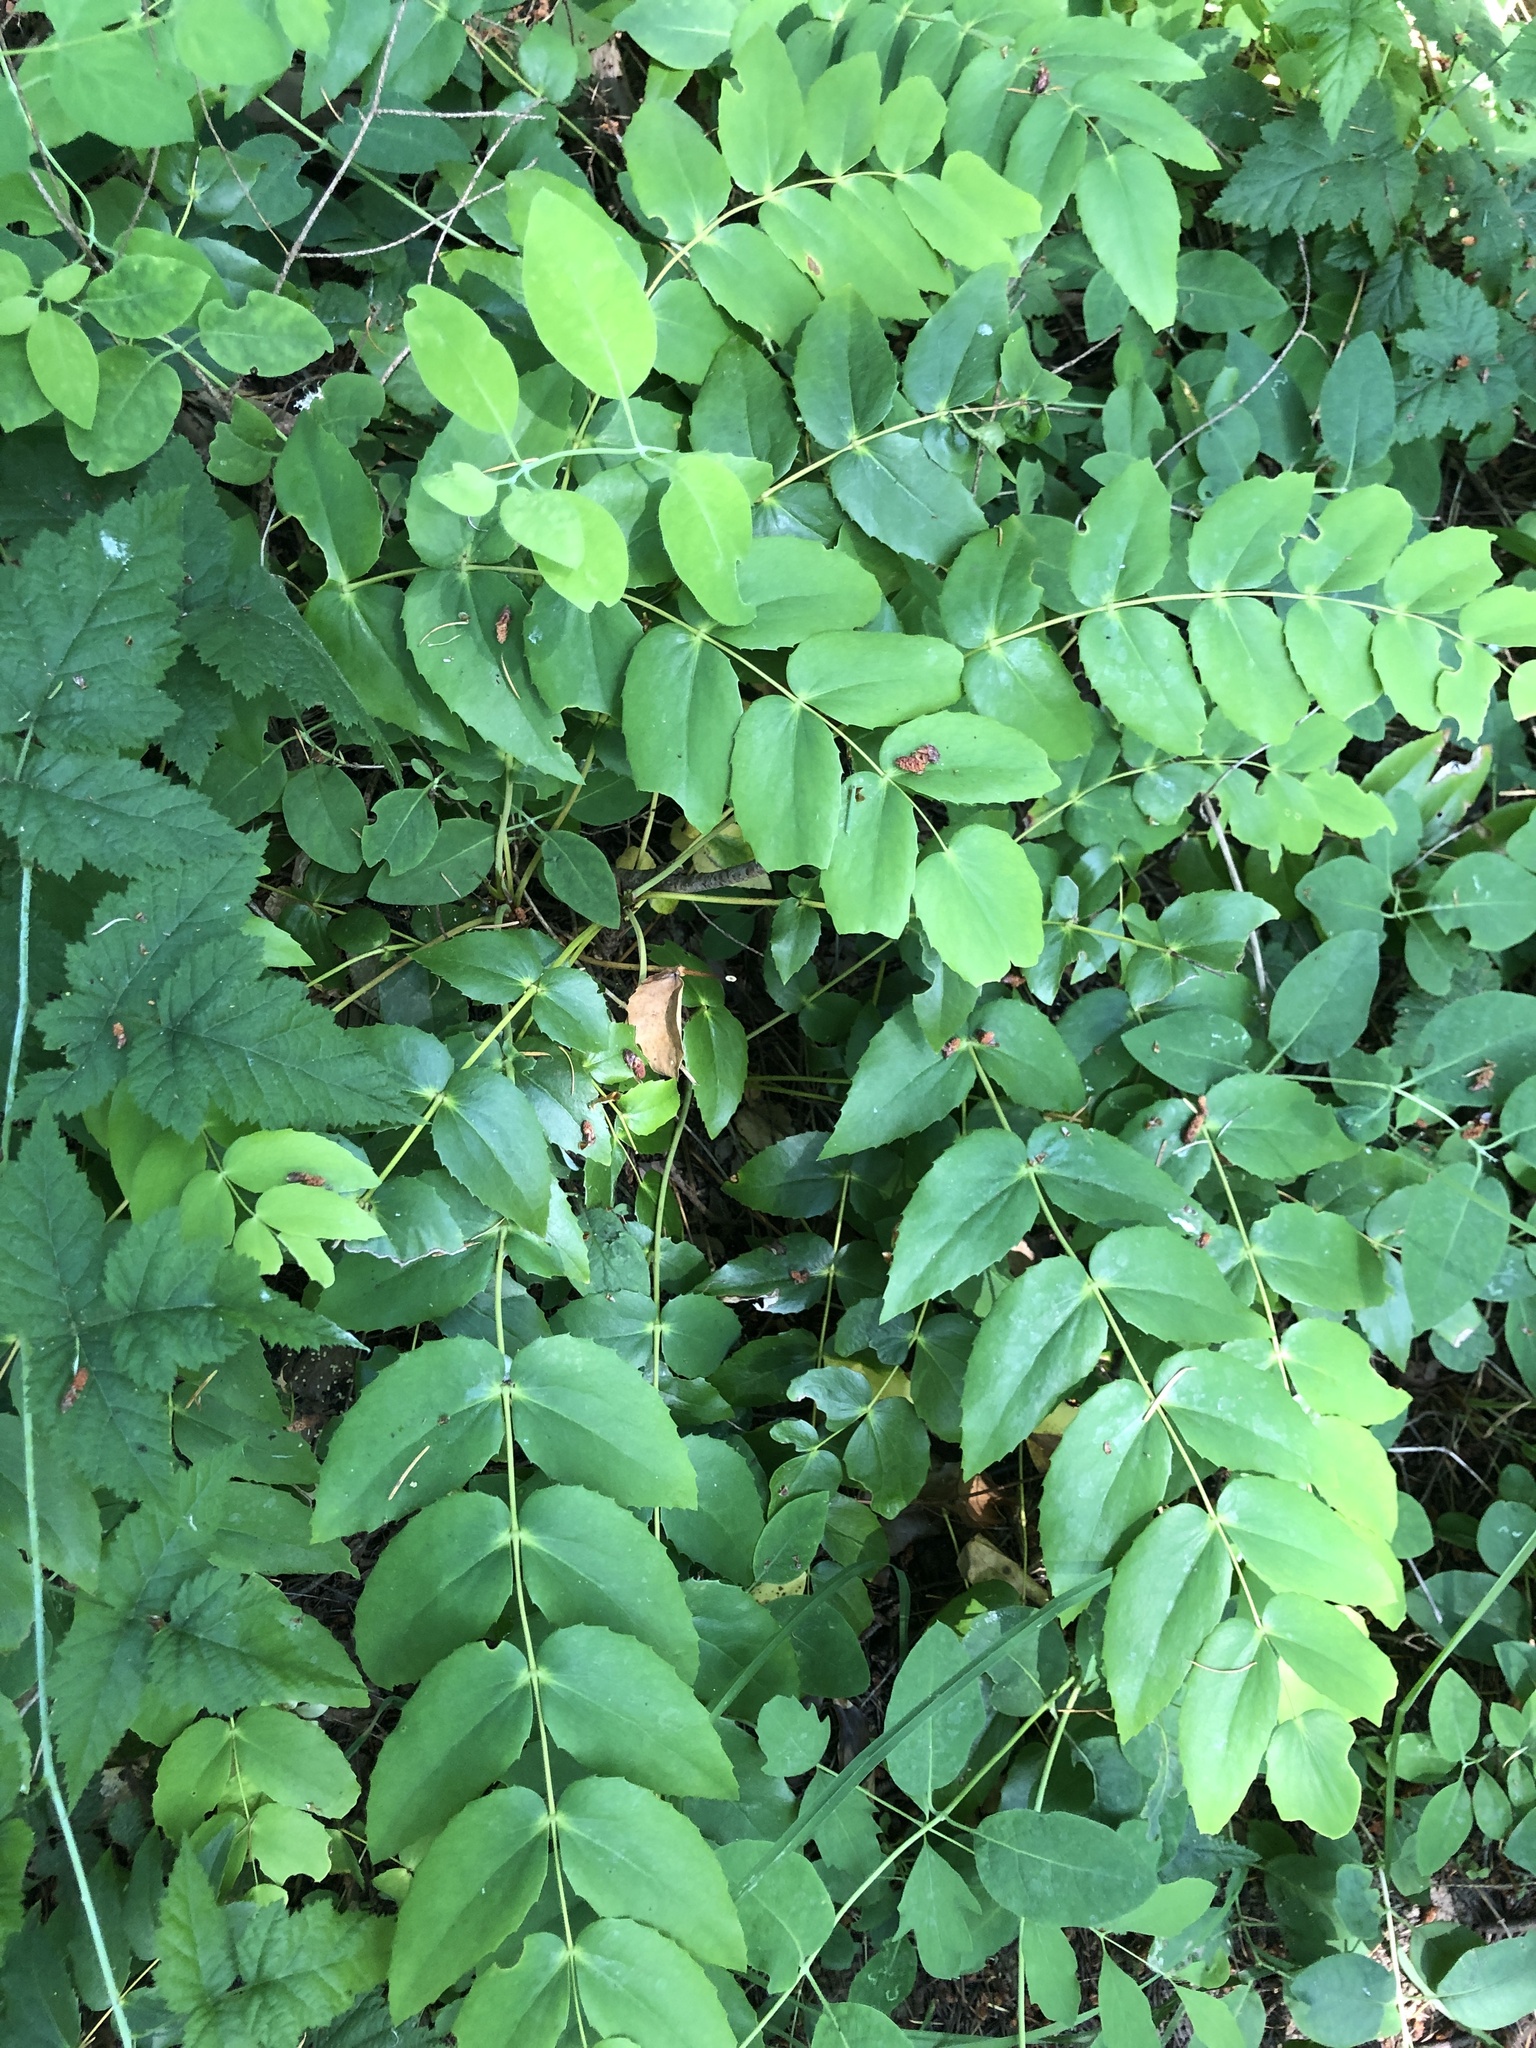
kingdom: Plantae
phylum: Tracheophyta
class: Magnoliopsida
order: Ranunculales
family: Berberidaceae
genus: Mahonia
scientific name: Mahonia nervosa
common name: Cascade oregon-grape
